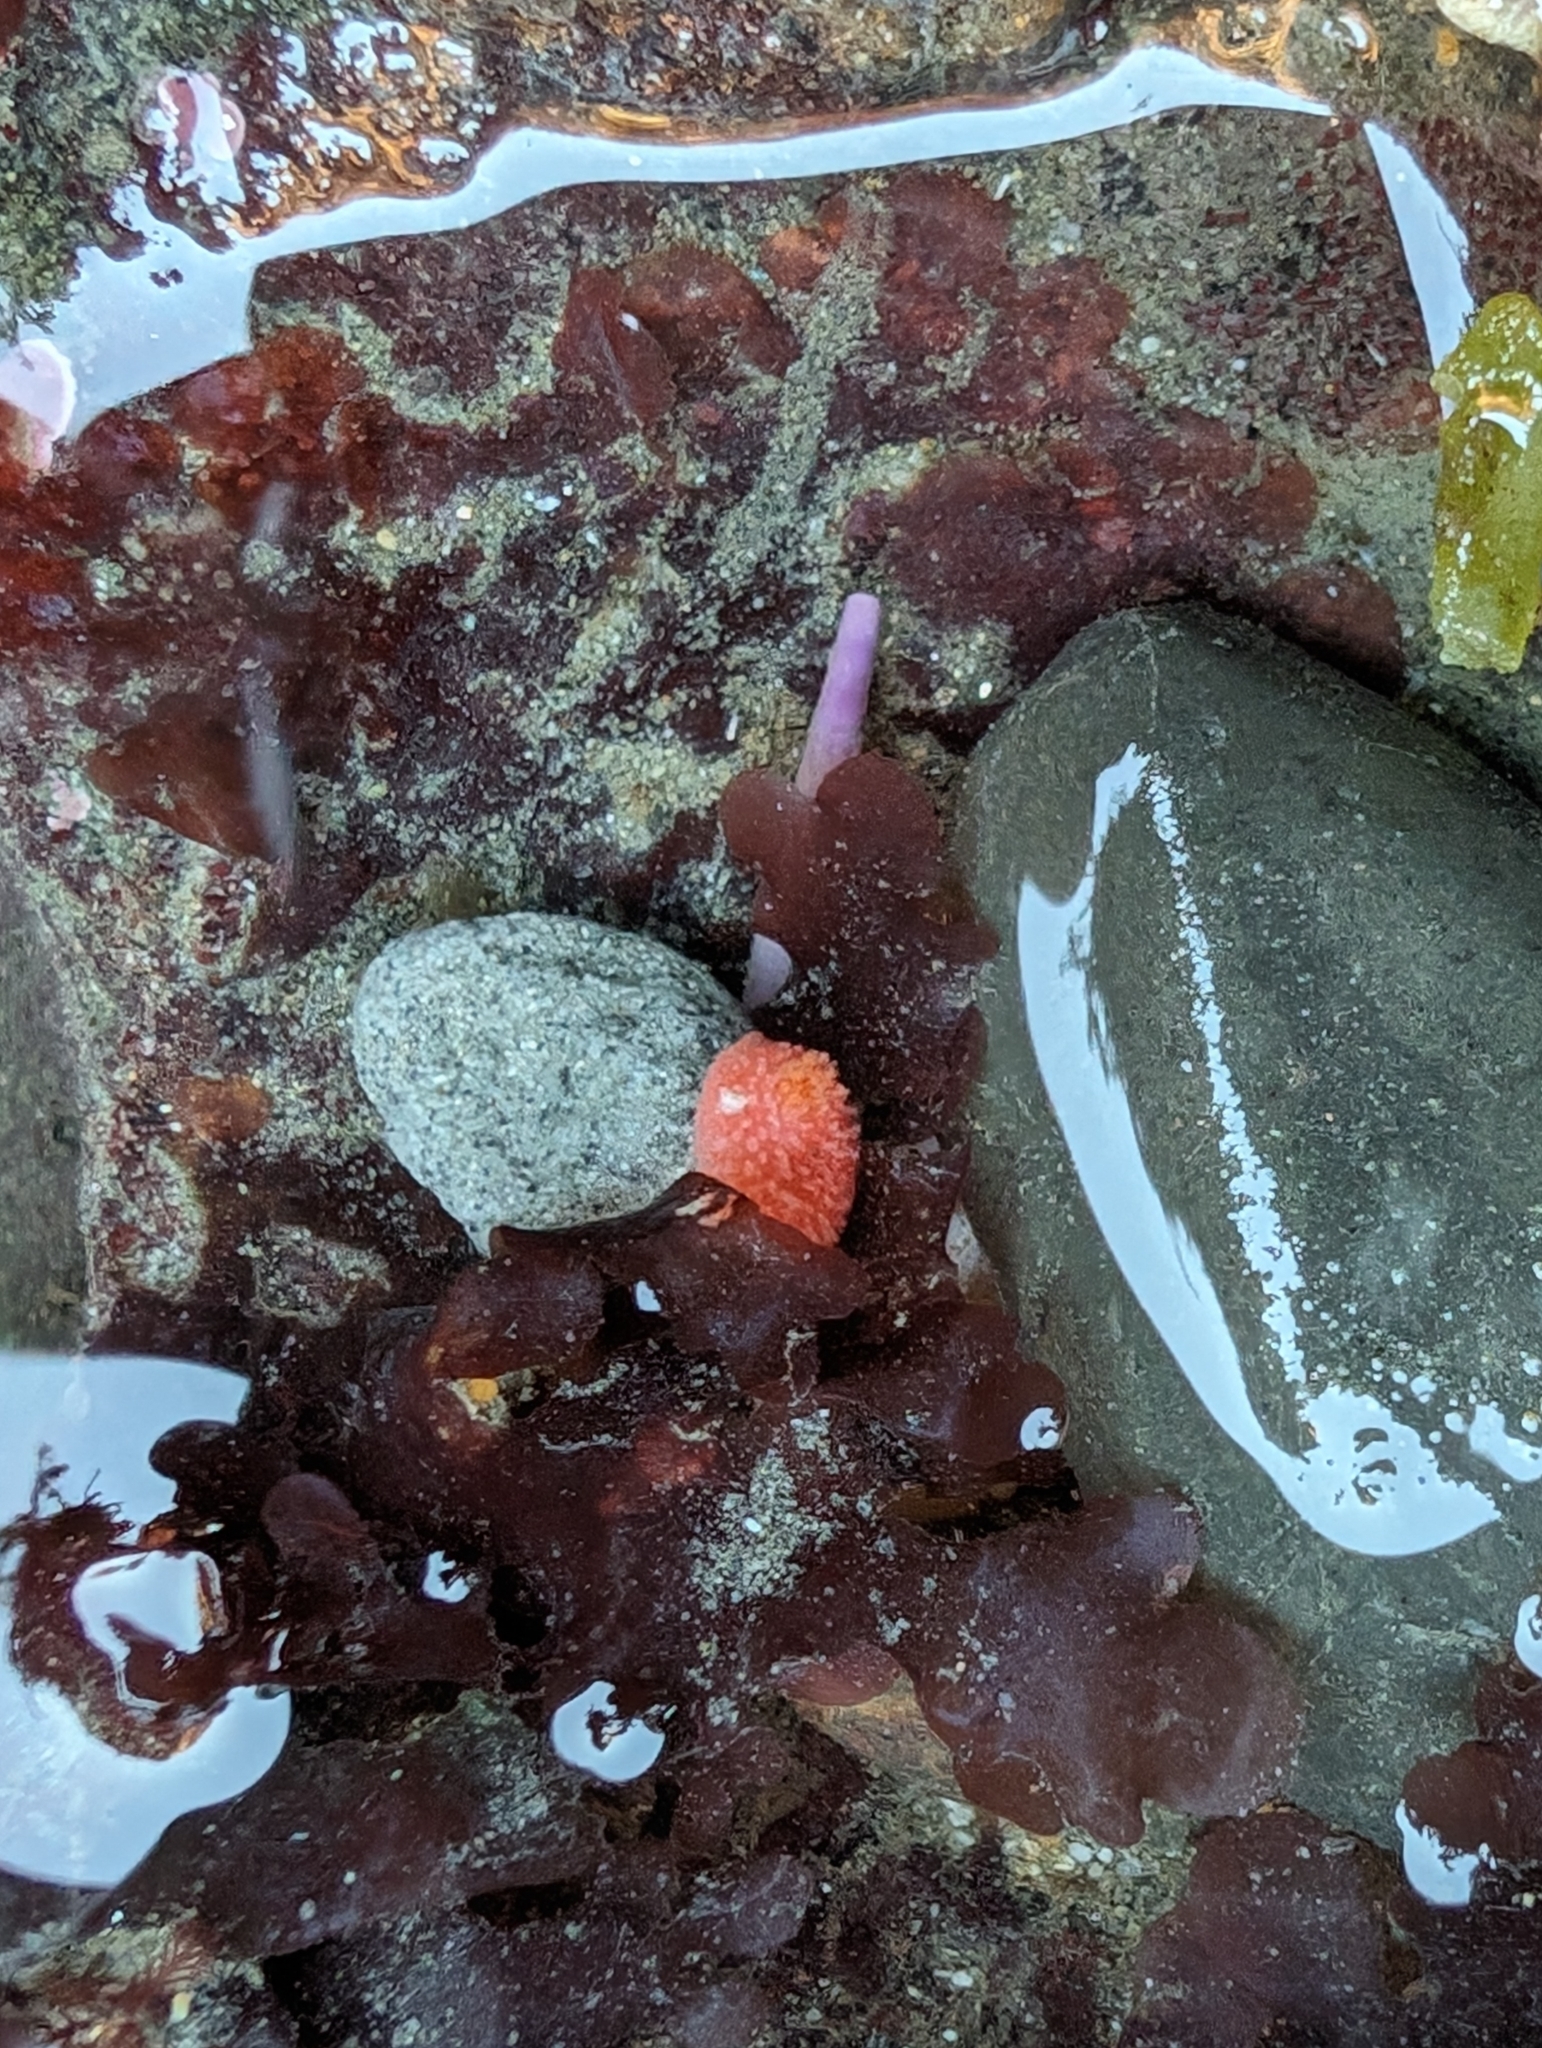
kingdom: Animalia
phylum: Echinodermata
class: Holothuroidea
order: Dendrochirotida
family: Psolidae
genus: Lissothuria
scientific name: Lissothuria nutriens
